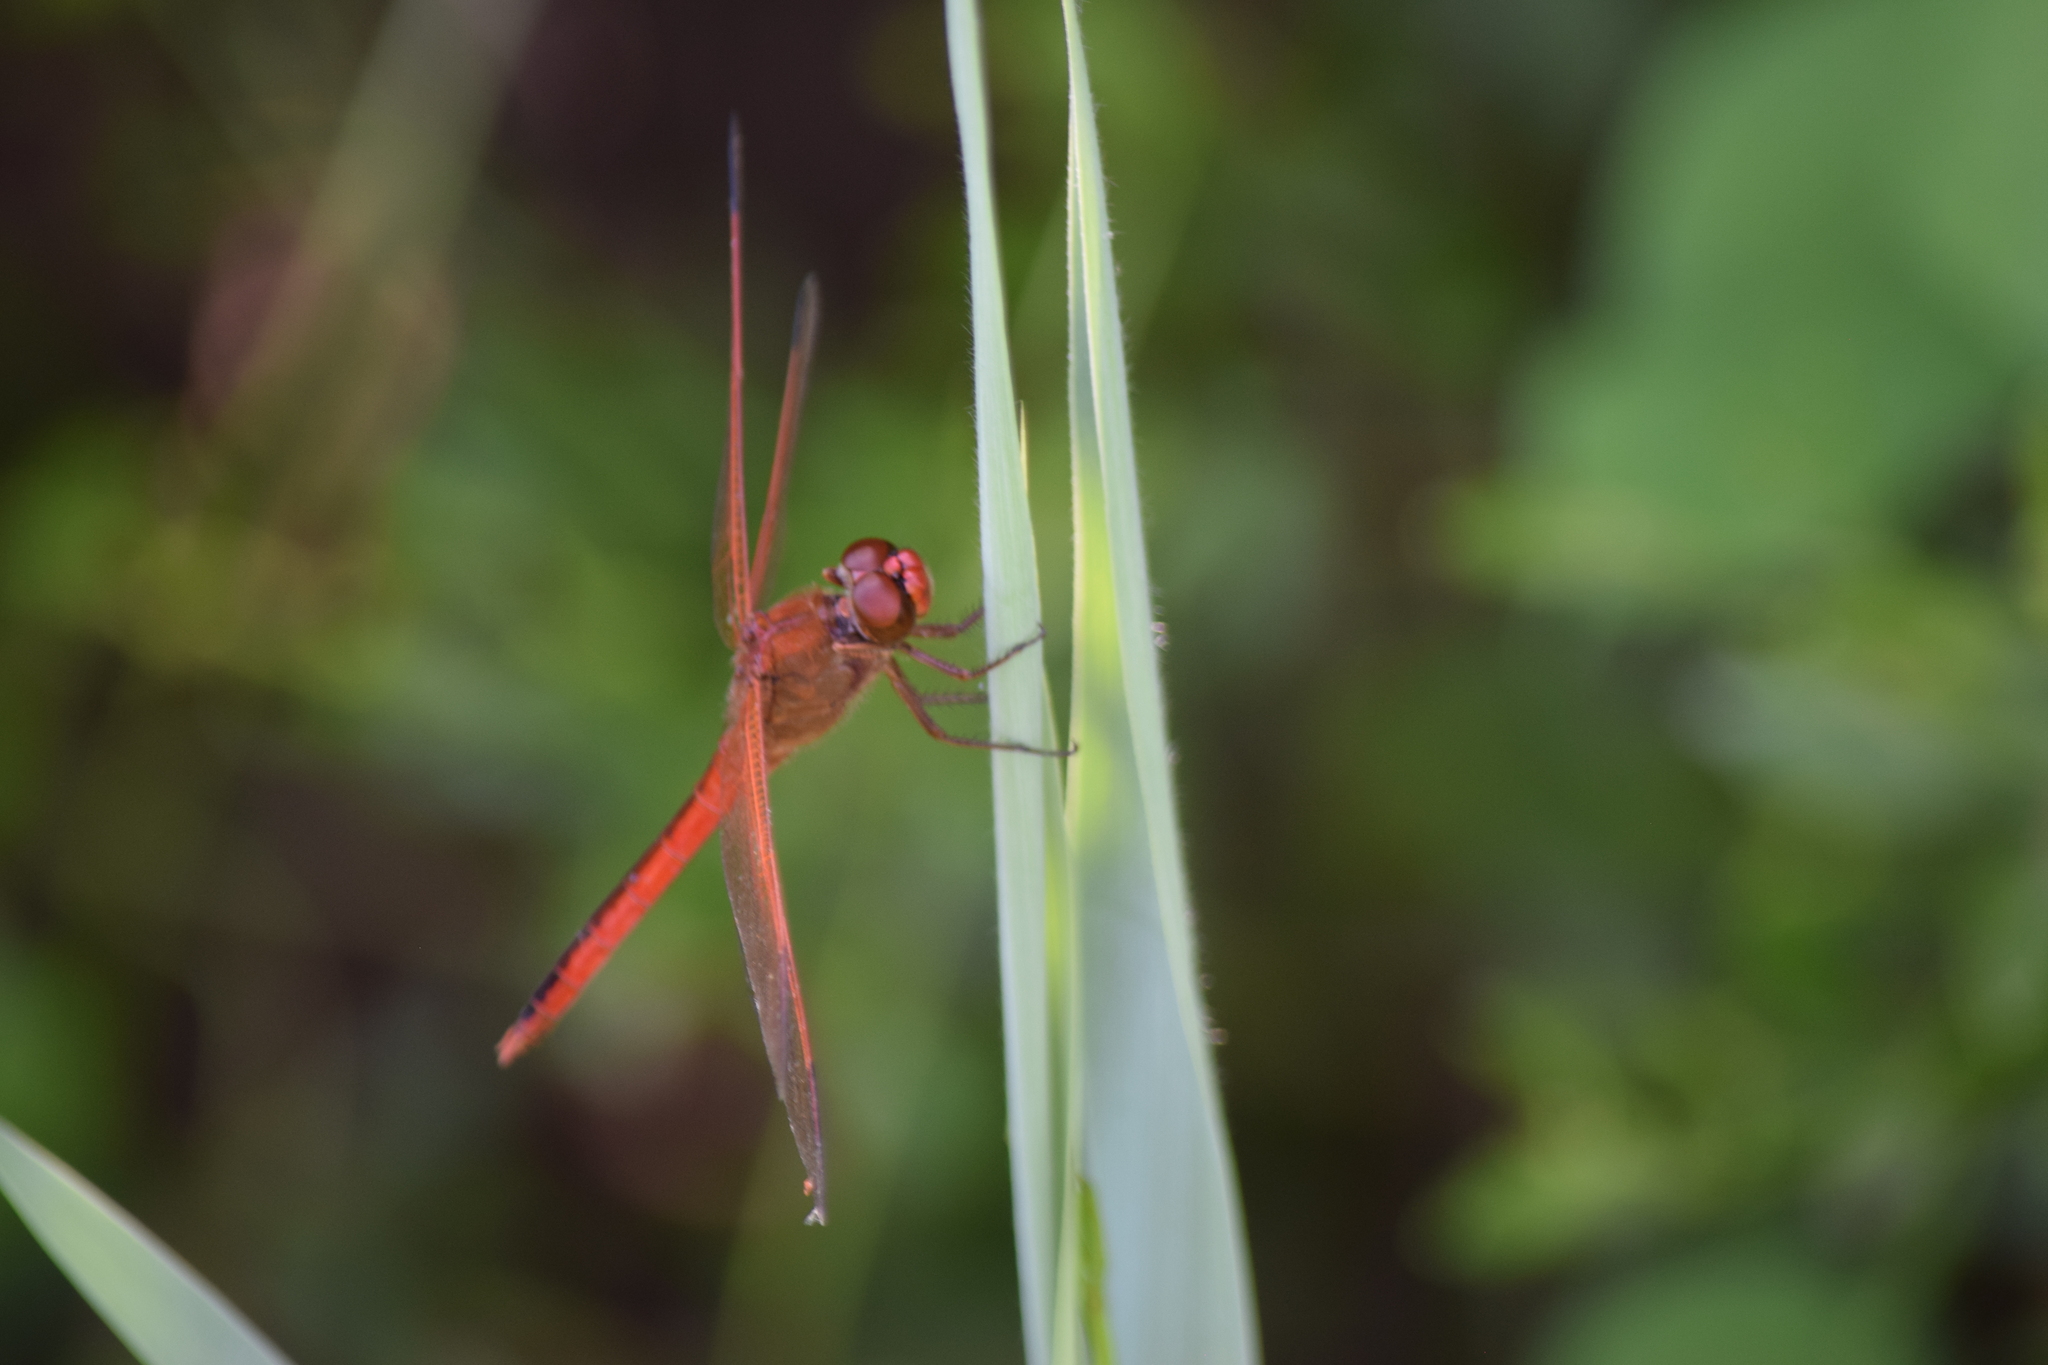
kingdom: Animalia
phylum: Arthropoda
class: Insecta
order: Odonata
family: Libellulidae
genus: Libellula
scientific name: Libellula needhami
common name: Needham's skimmer
